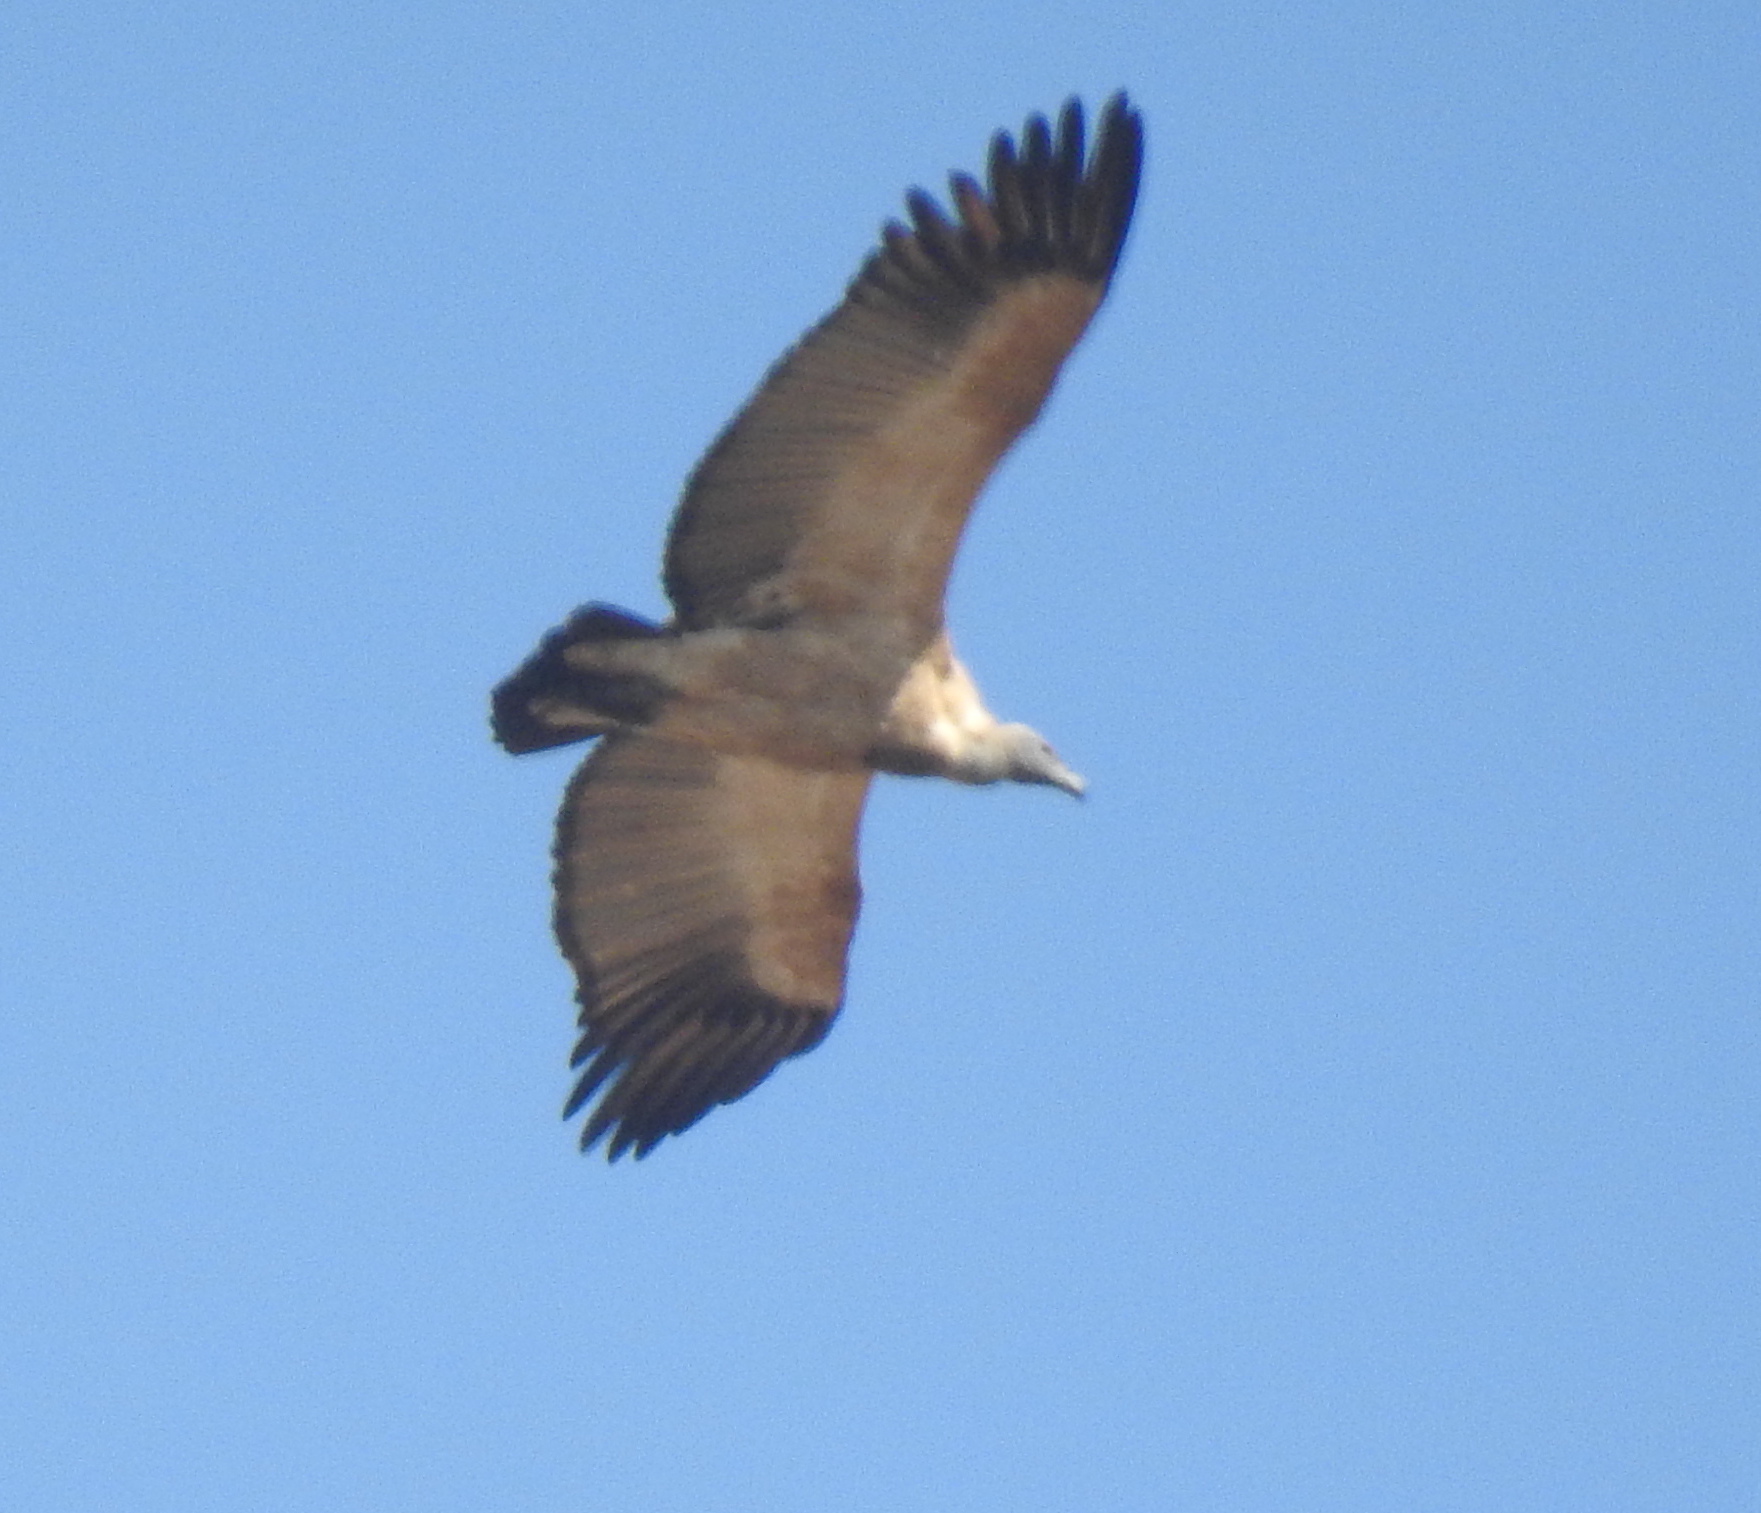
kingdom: Animalia
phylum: Chordata
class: Aves
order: Accipitriformes
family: Accipitridae
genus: Gyps
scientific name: Gyps coprotheres
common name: Cape vulture
